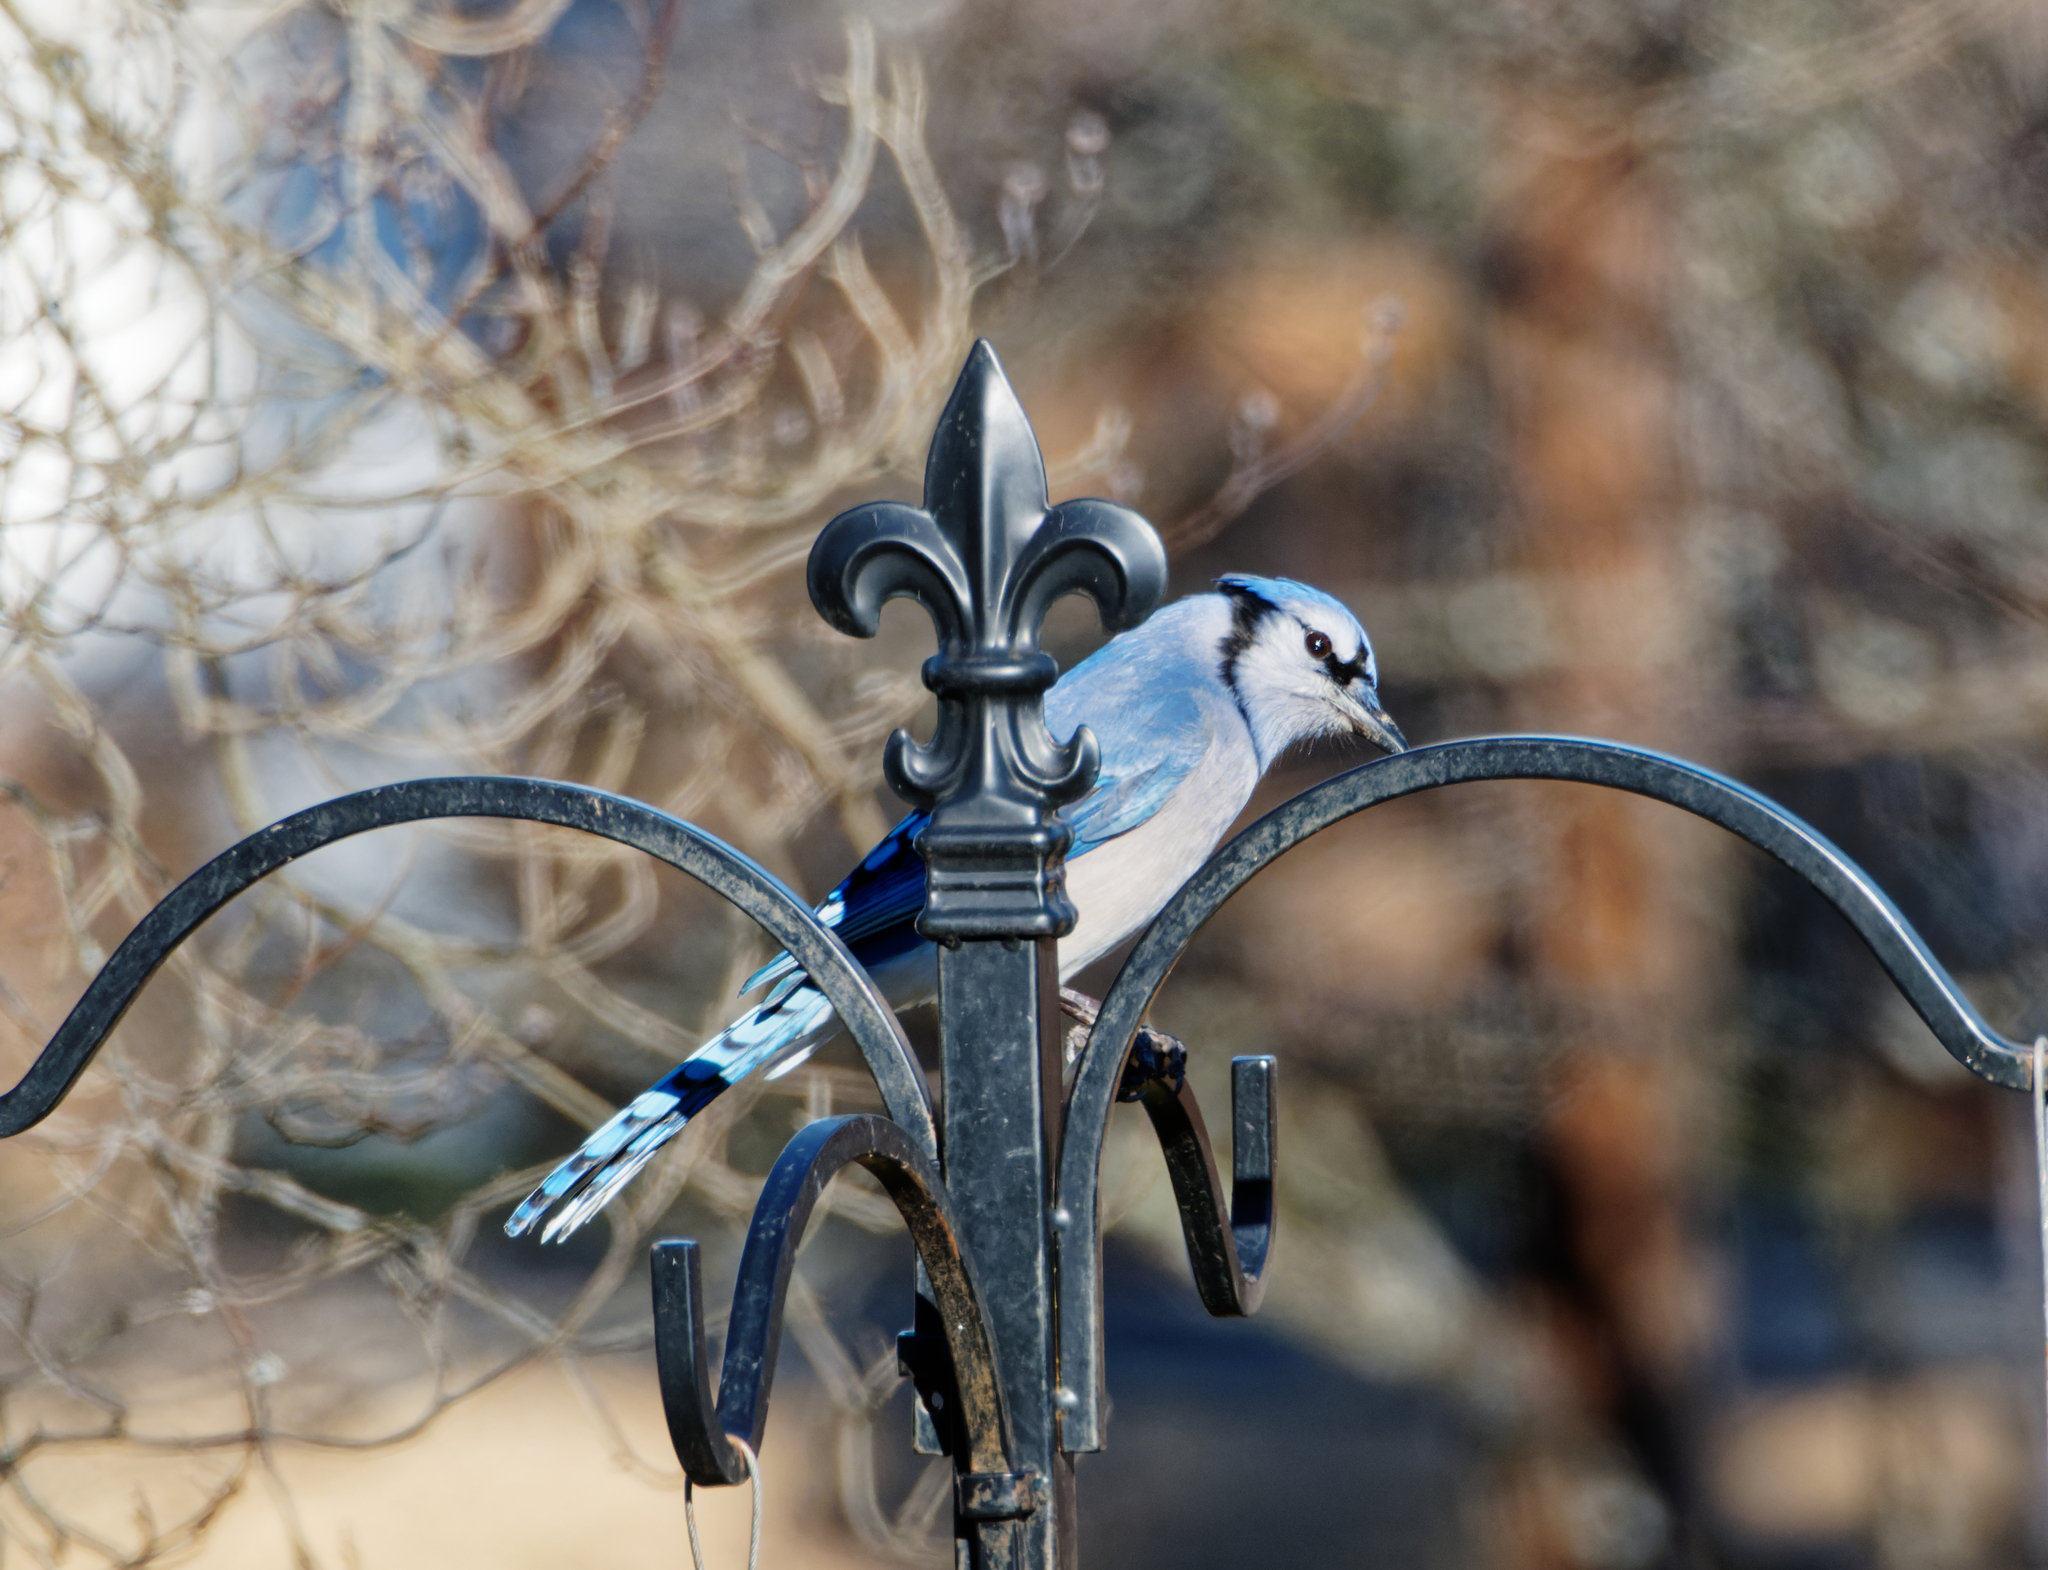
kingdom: Animalia
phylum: Chordata
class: Aves
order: Passeriformes
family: Corvidae
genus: Cyanocitta
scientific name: Cyanocitta cristata
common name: Blue jay
